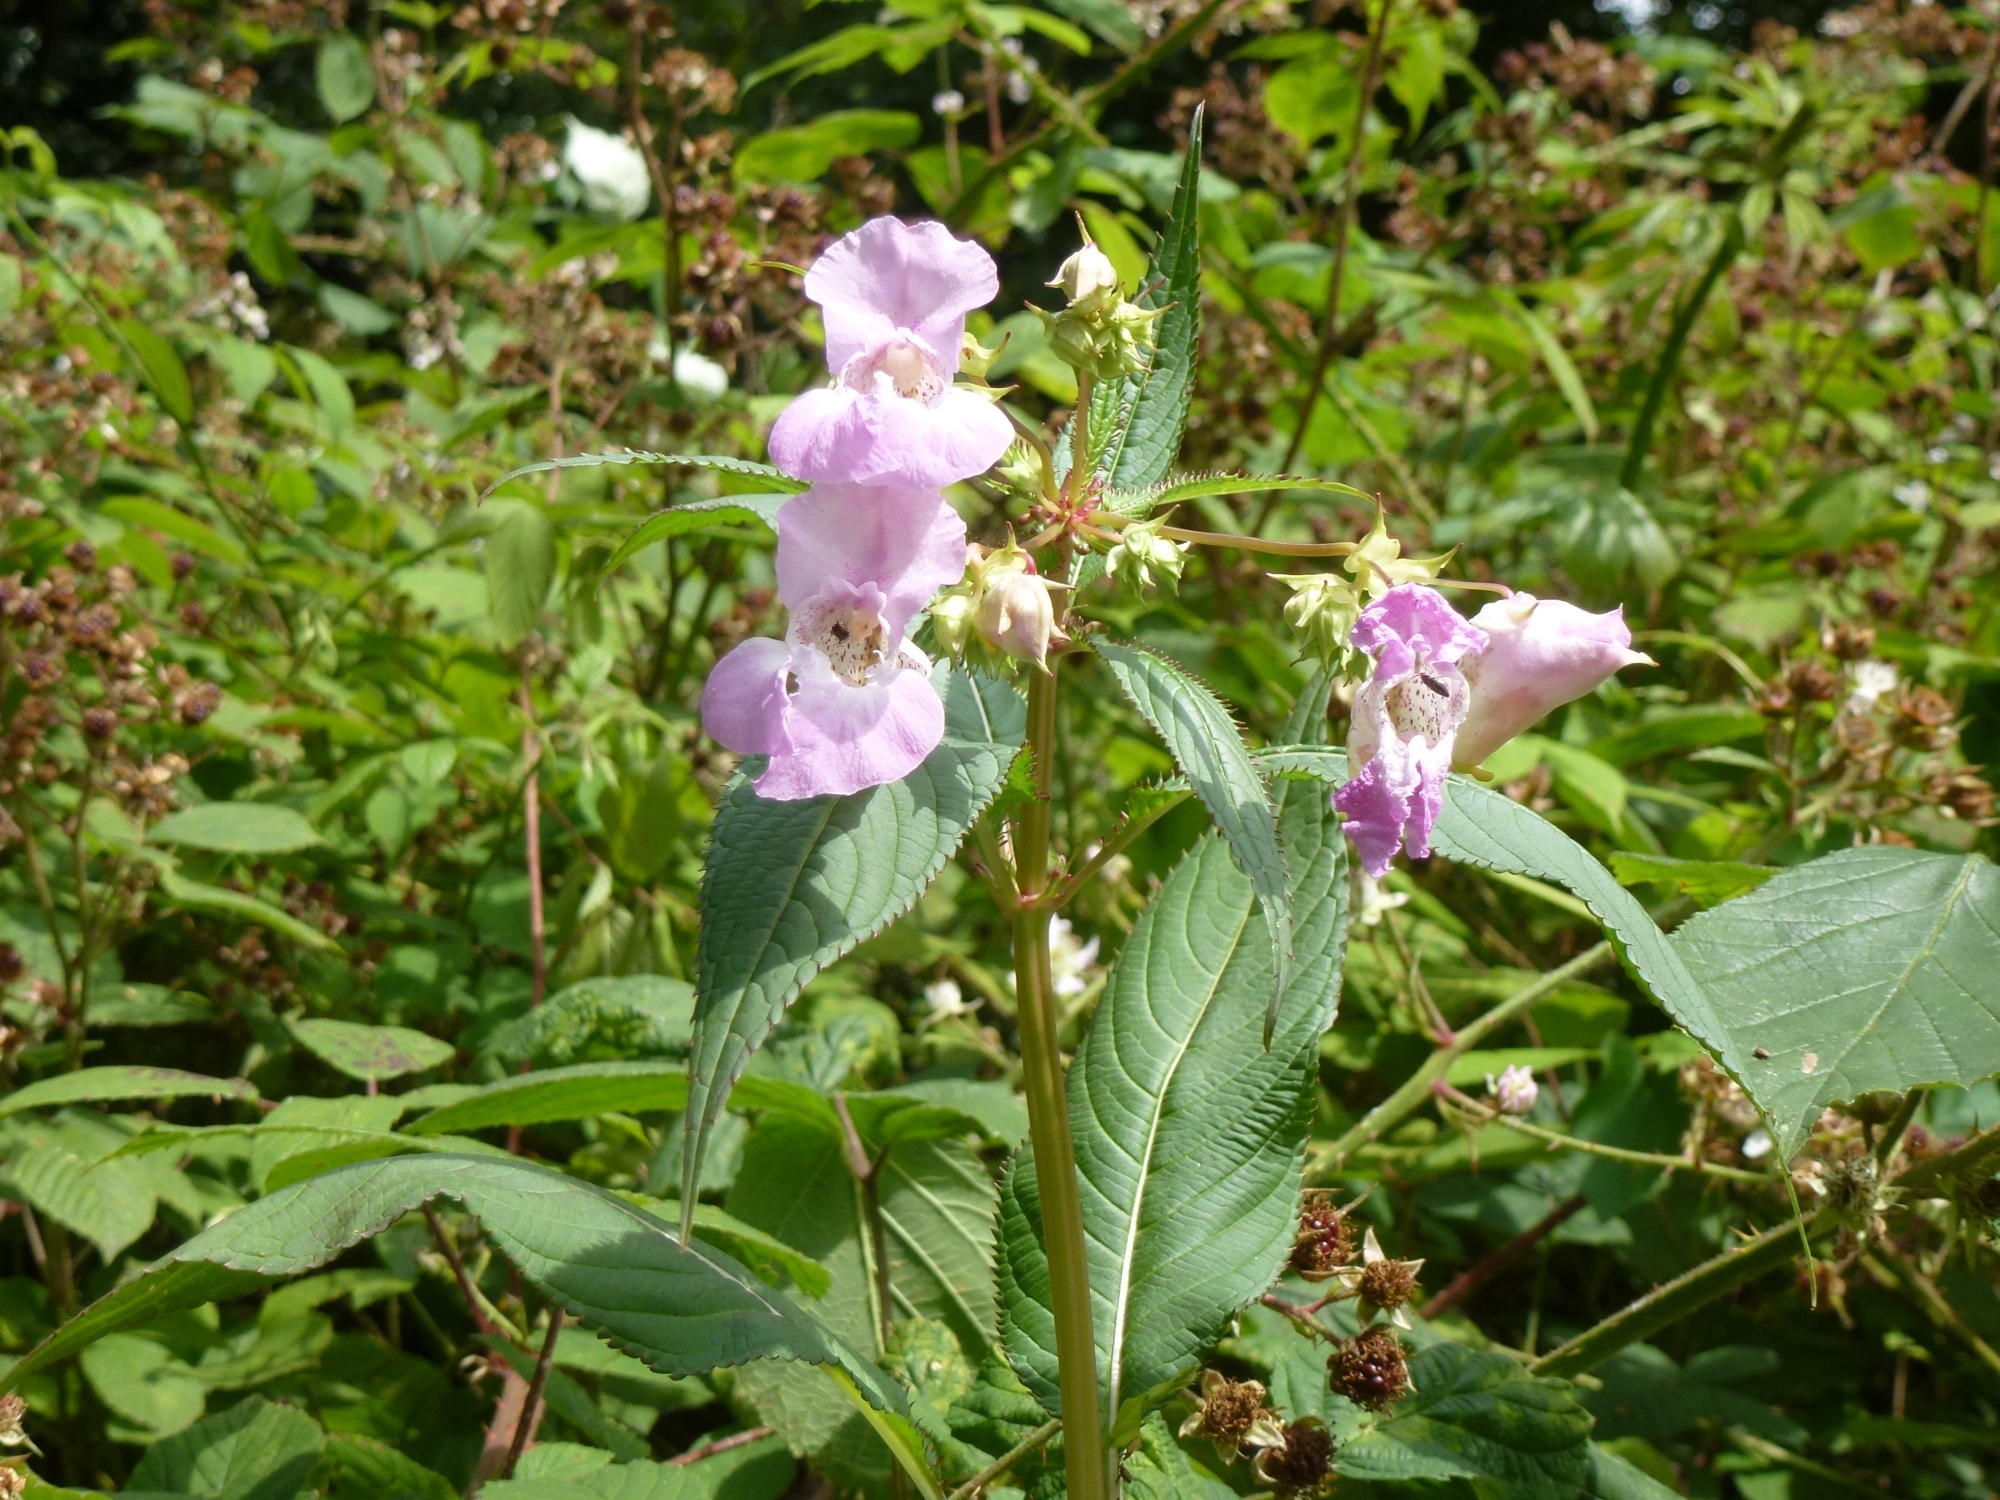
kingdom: Plantae
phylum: Tracheophyta
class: Magnoliopsida
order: Ericales
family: Balsaminaceae
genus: Impatiens
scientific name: Impatiens glandulifera
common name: Himalayan balsam
